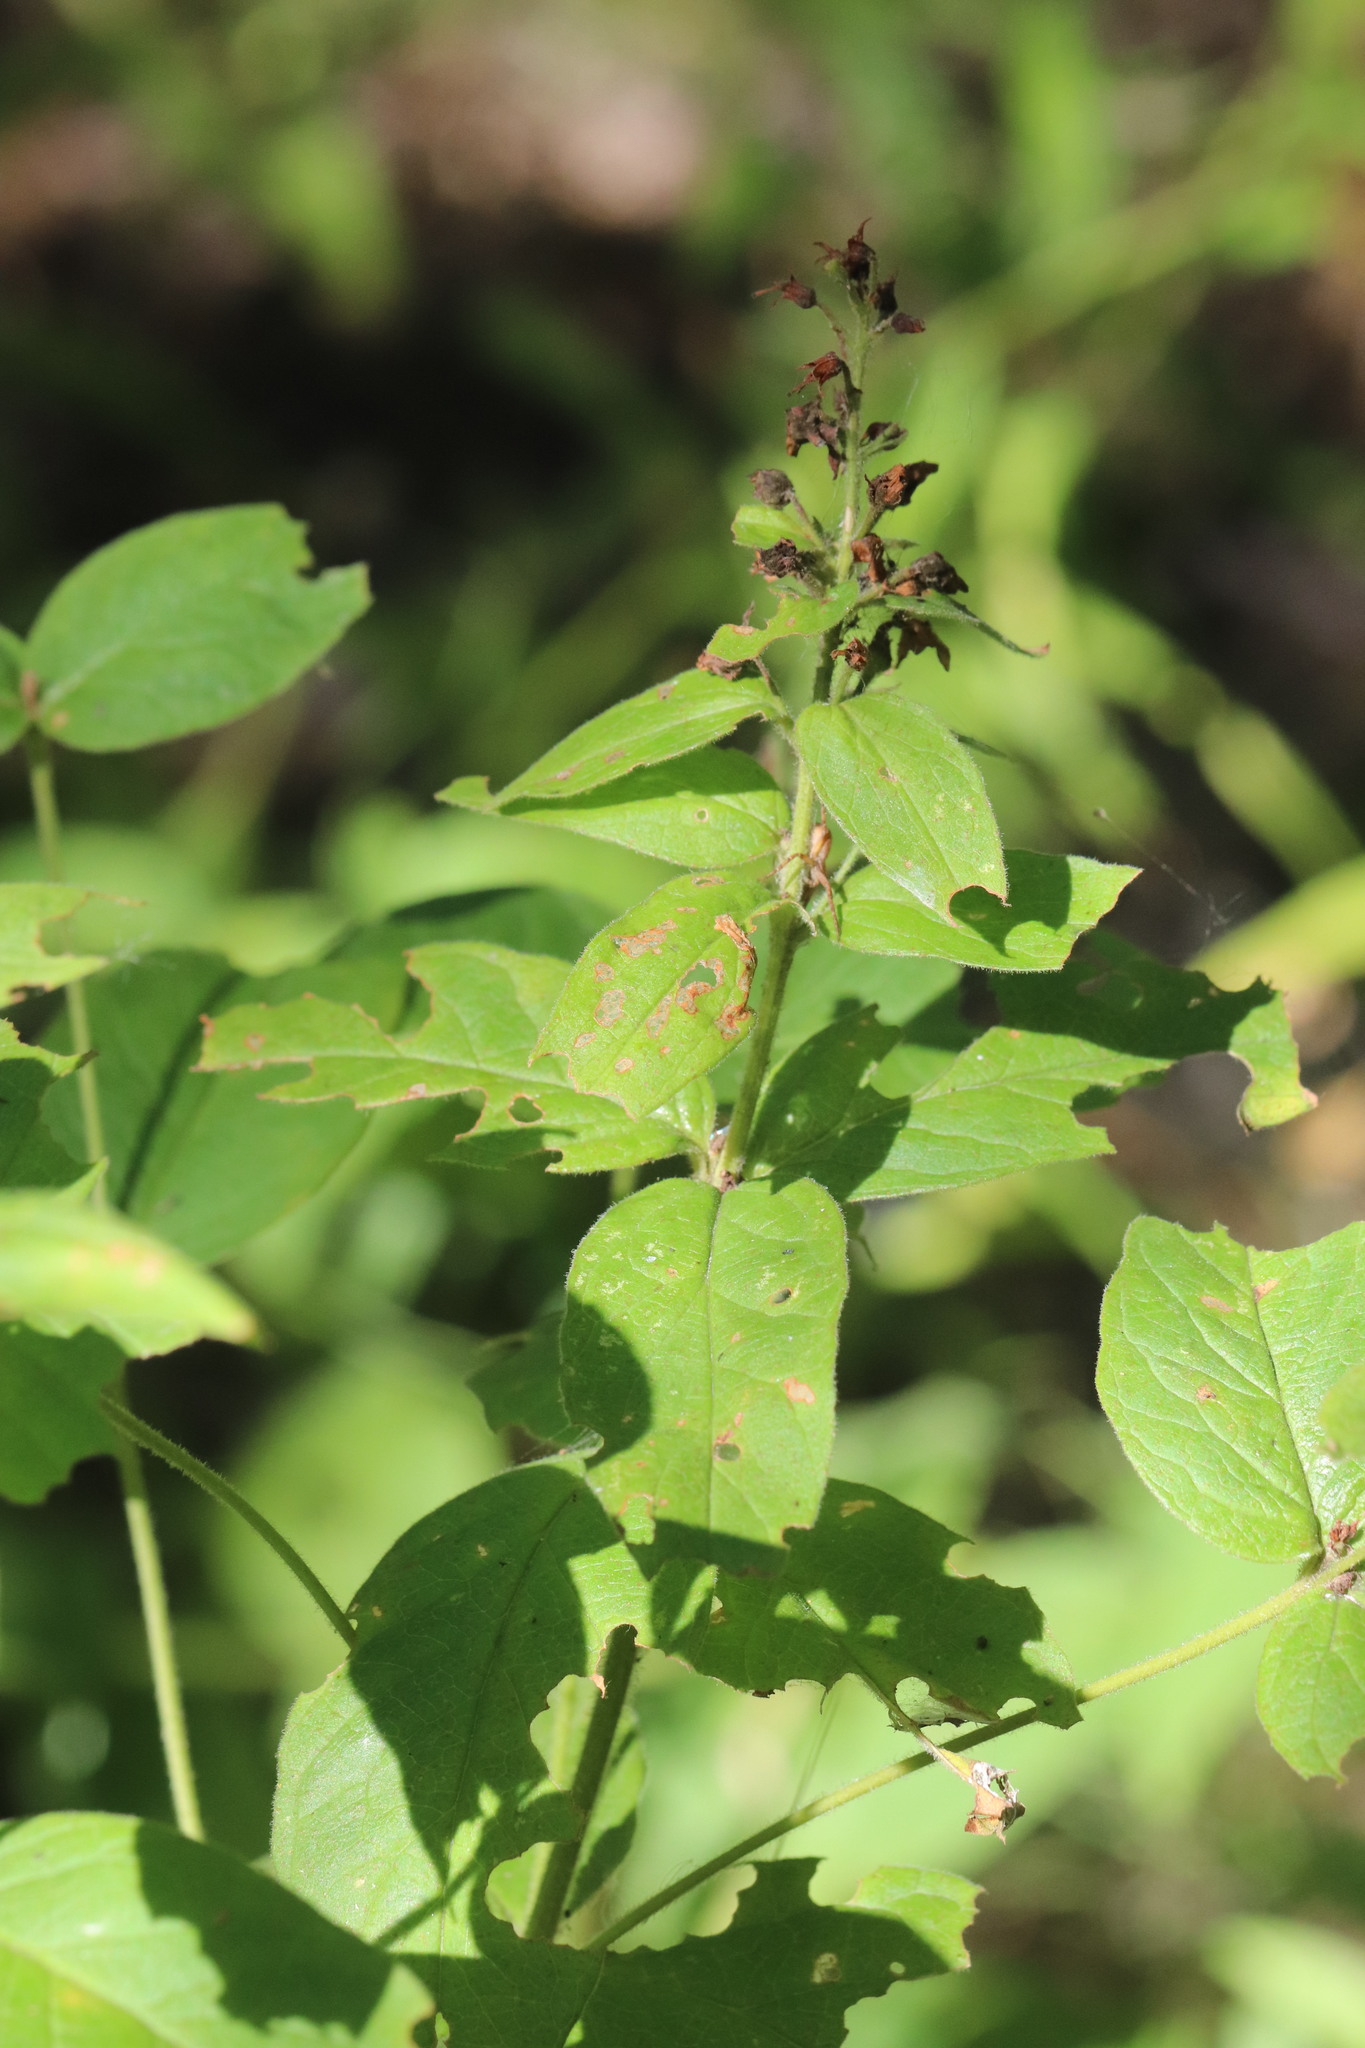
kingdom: Plantae
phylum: Tracheophyta
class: Magnoliopsida
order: Ericales
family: Primulaceae
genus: Lysimachia
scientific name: Lysimachia vulgaris
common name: Yellow loosestrife
